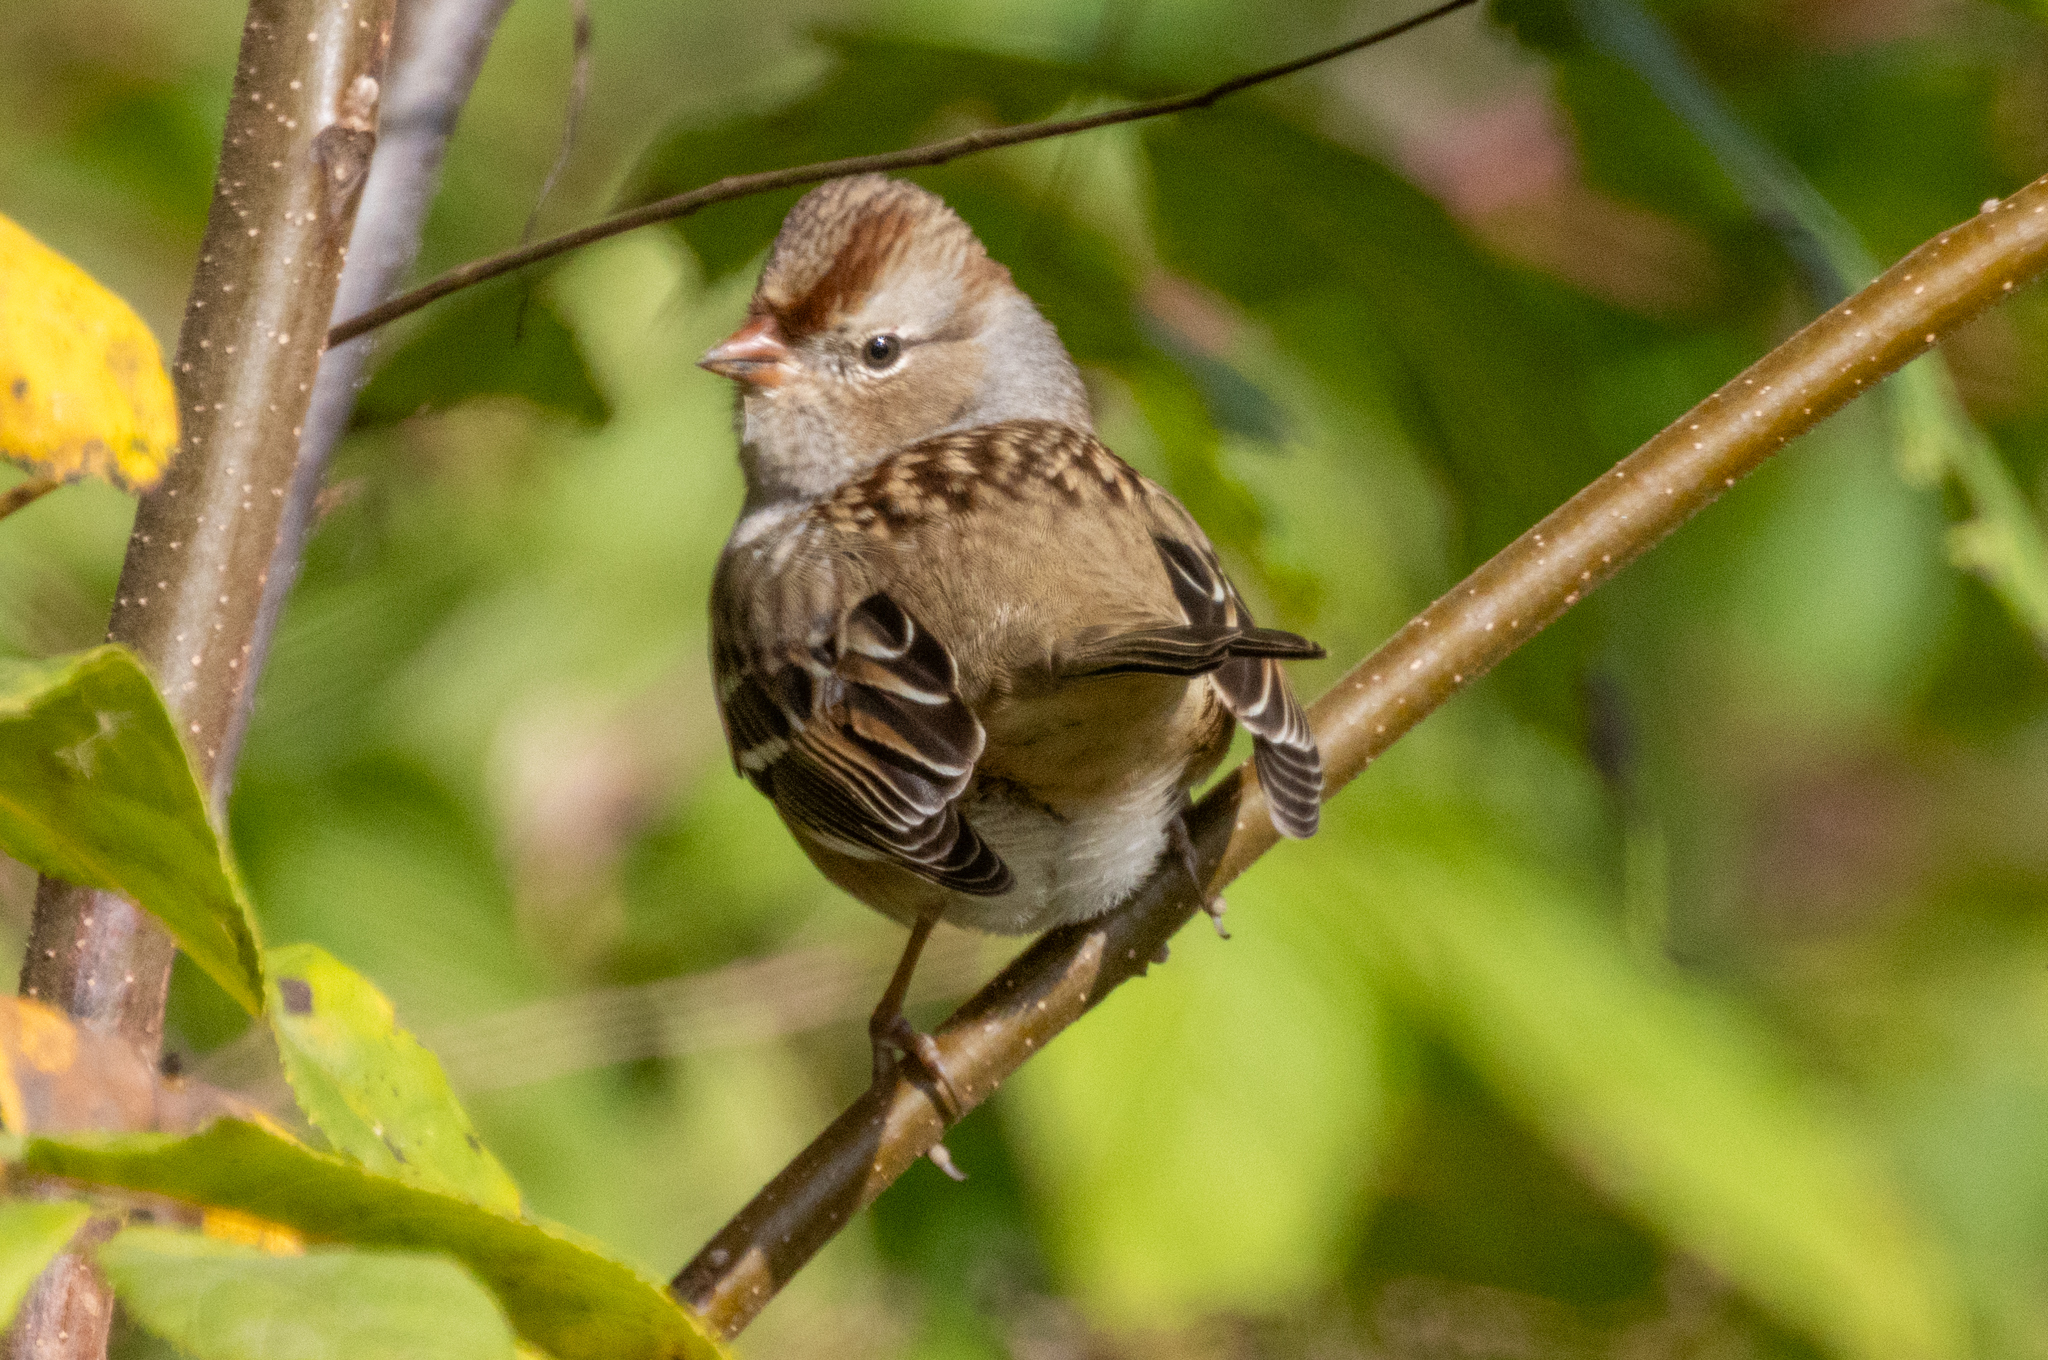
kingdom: Animalia
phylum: Chordata
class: Aves
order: Passeriformes
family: Passerellidae
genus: Zonotrichia
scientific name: Zonotrichia leucophrys
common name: White-crowned sparrow
